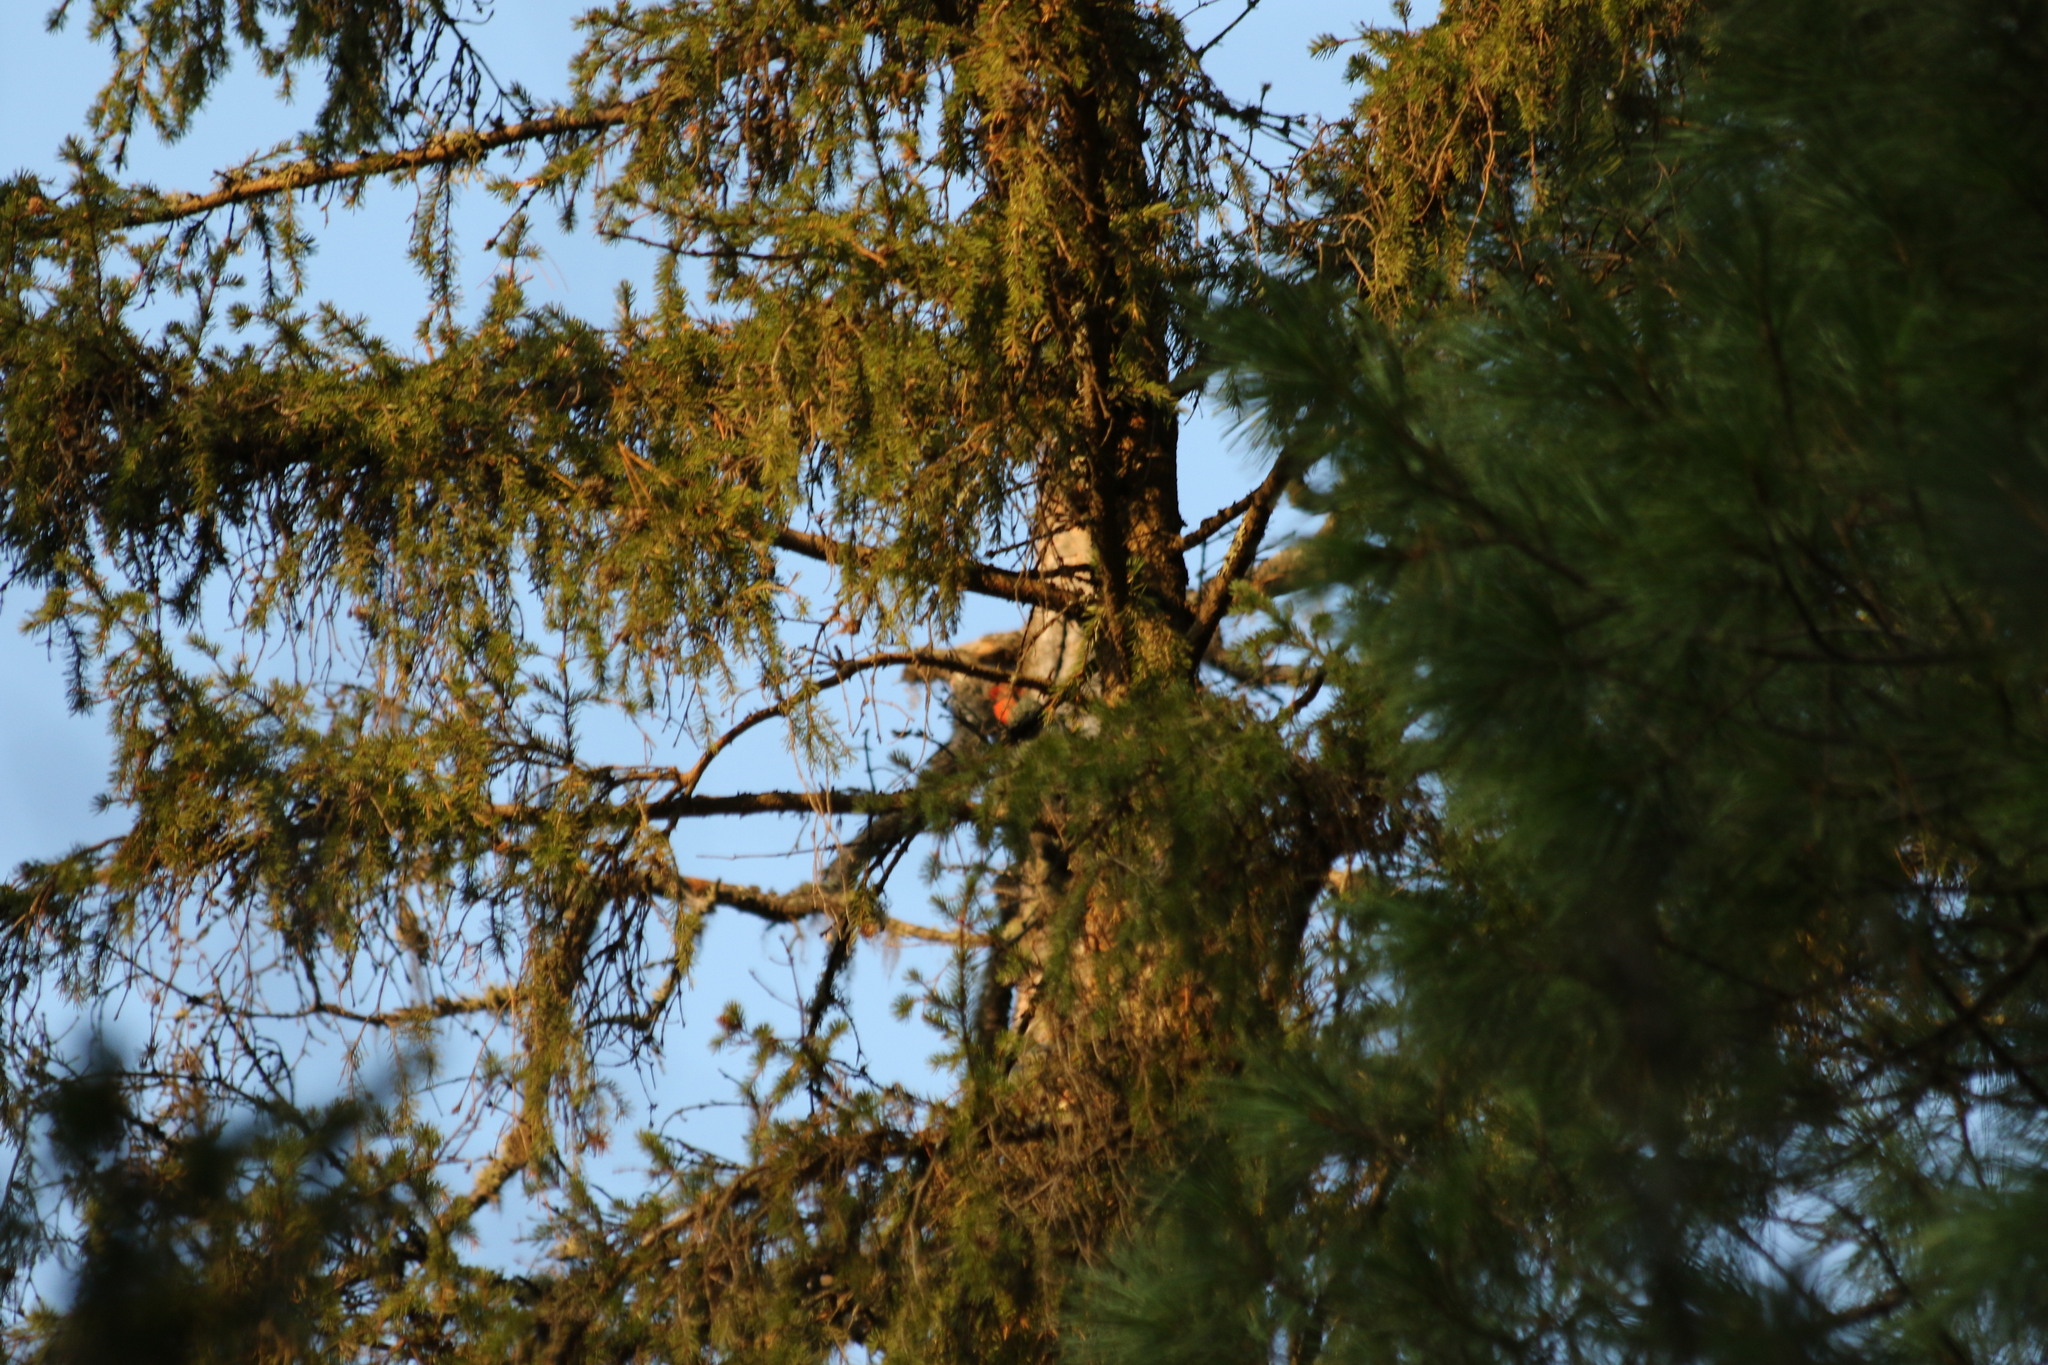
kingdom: Animalia
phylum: Chordata
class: Aves
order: Piciformes
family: Picidae
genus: Dendrocopos
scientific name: Dendrocopos major
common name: Great spotted woodpecker
